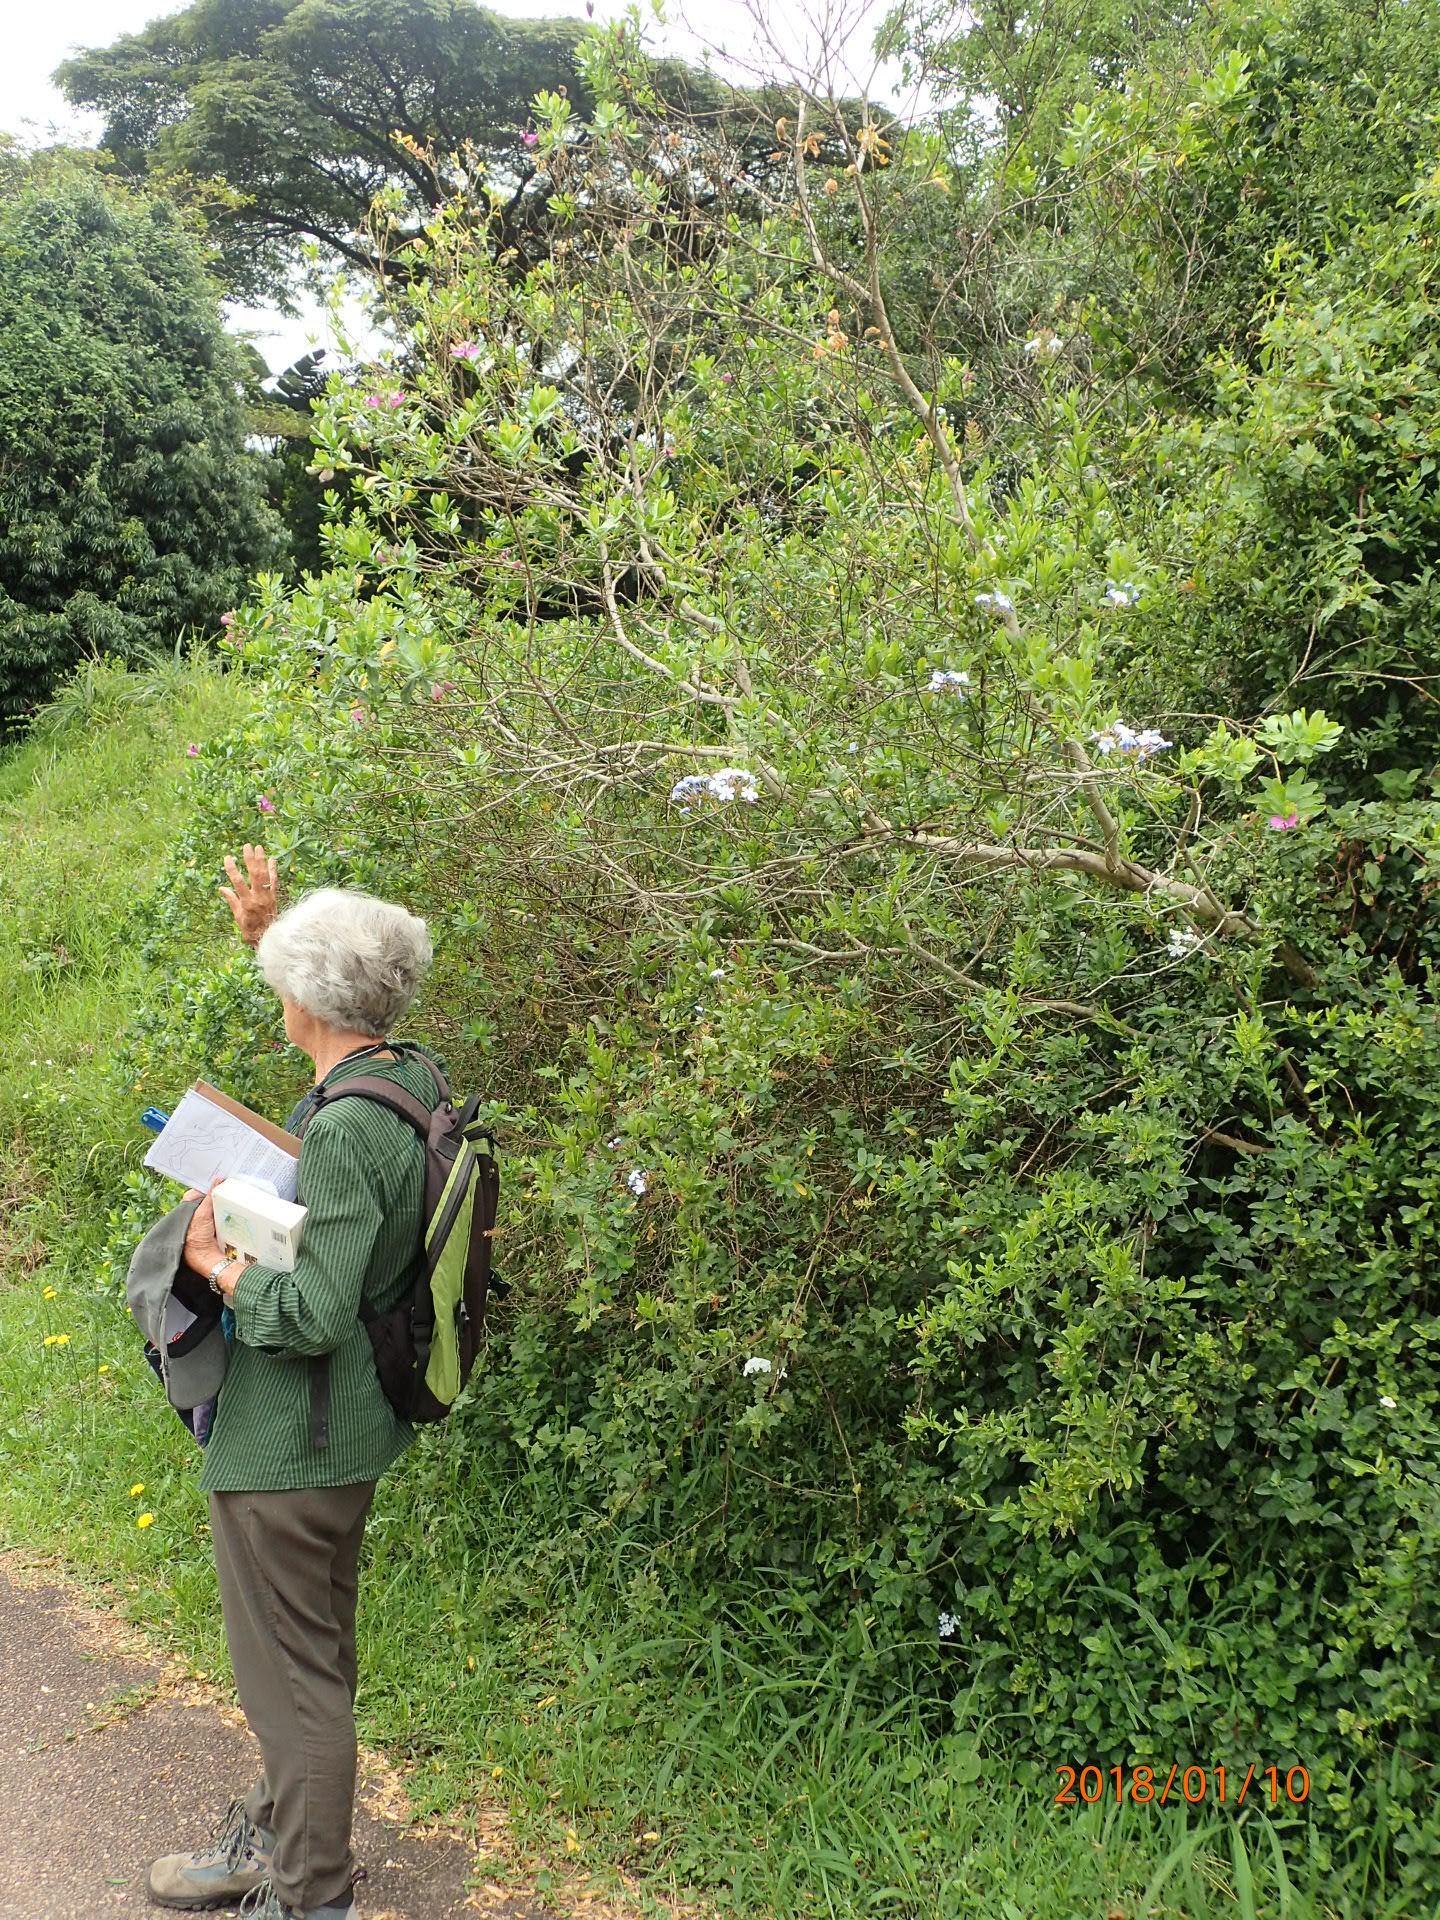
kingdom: Plantae
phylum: Tracheophyta
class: Magnoliopsida
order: Caryophyllales
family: Plumbaginaceae
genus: Plumbago
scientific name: Plumbago auriculata
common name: Cape leadwort
